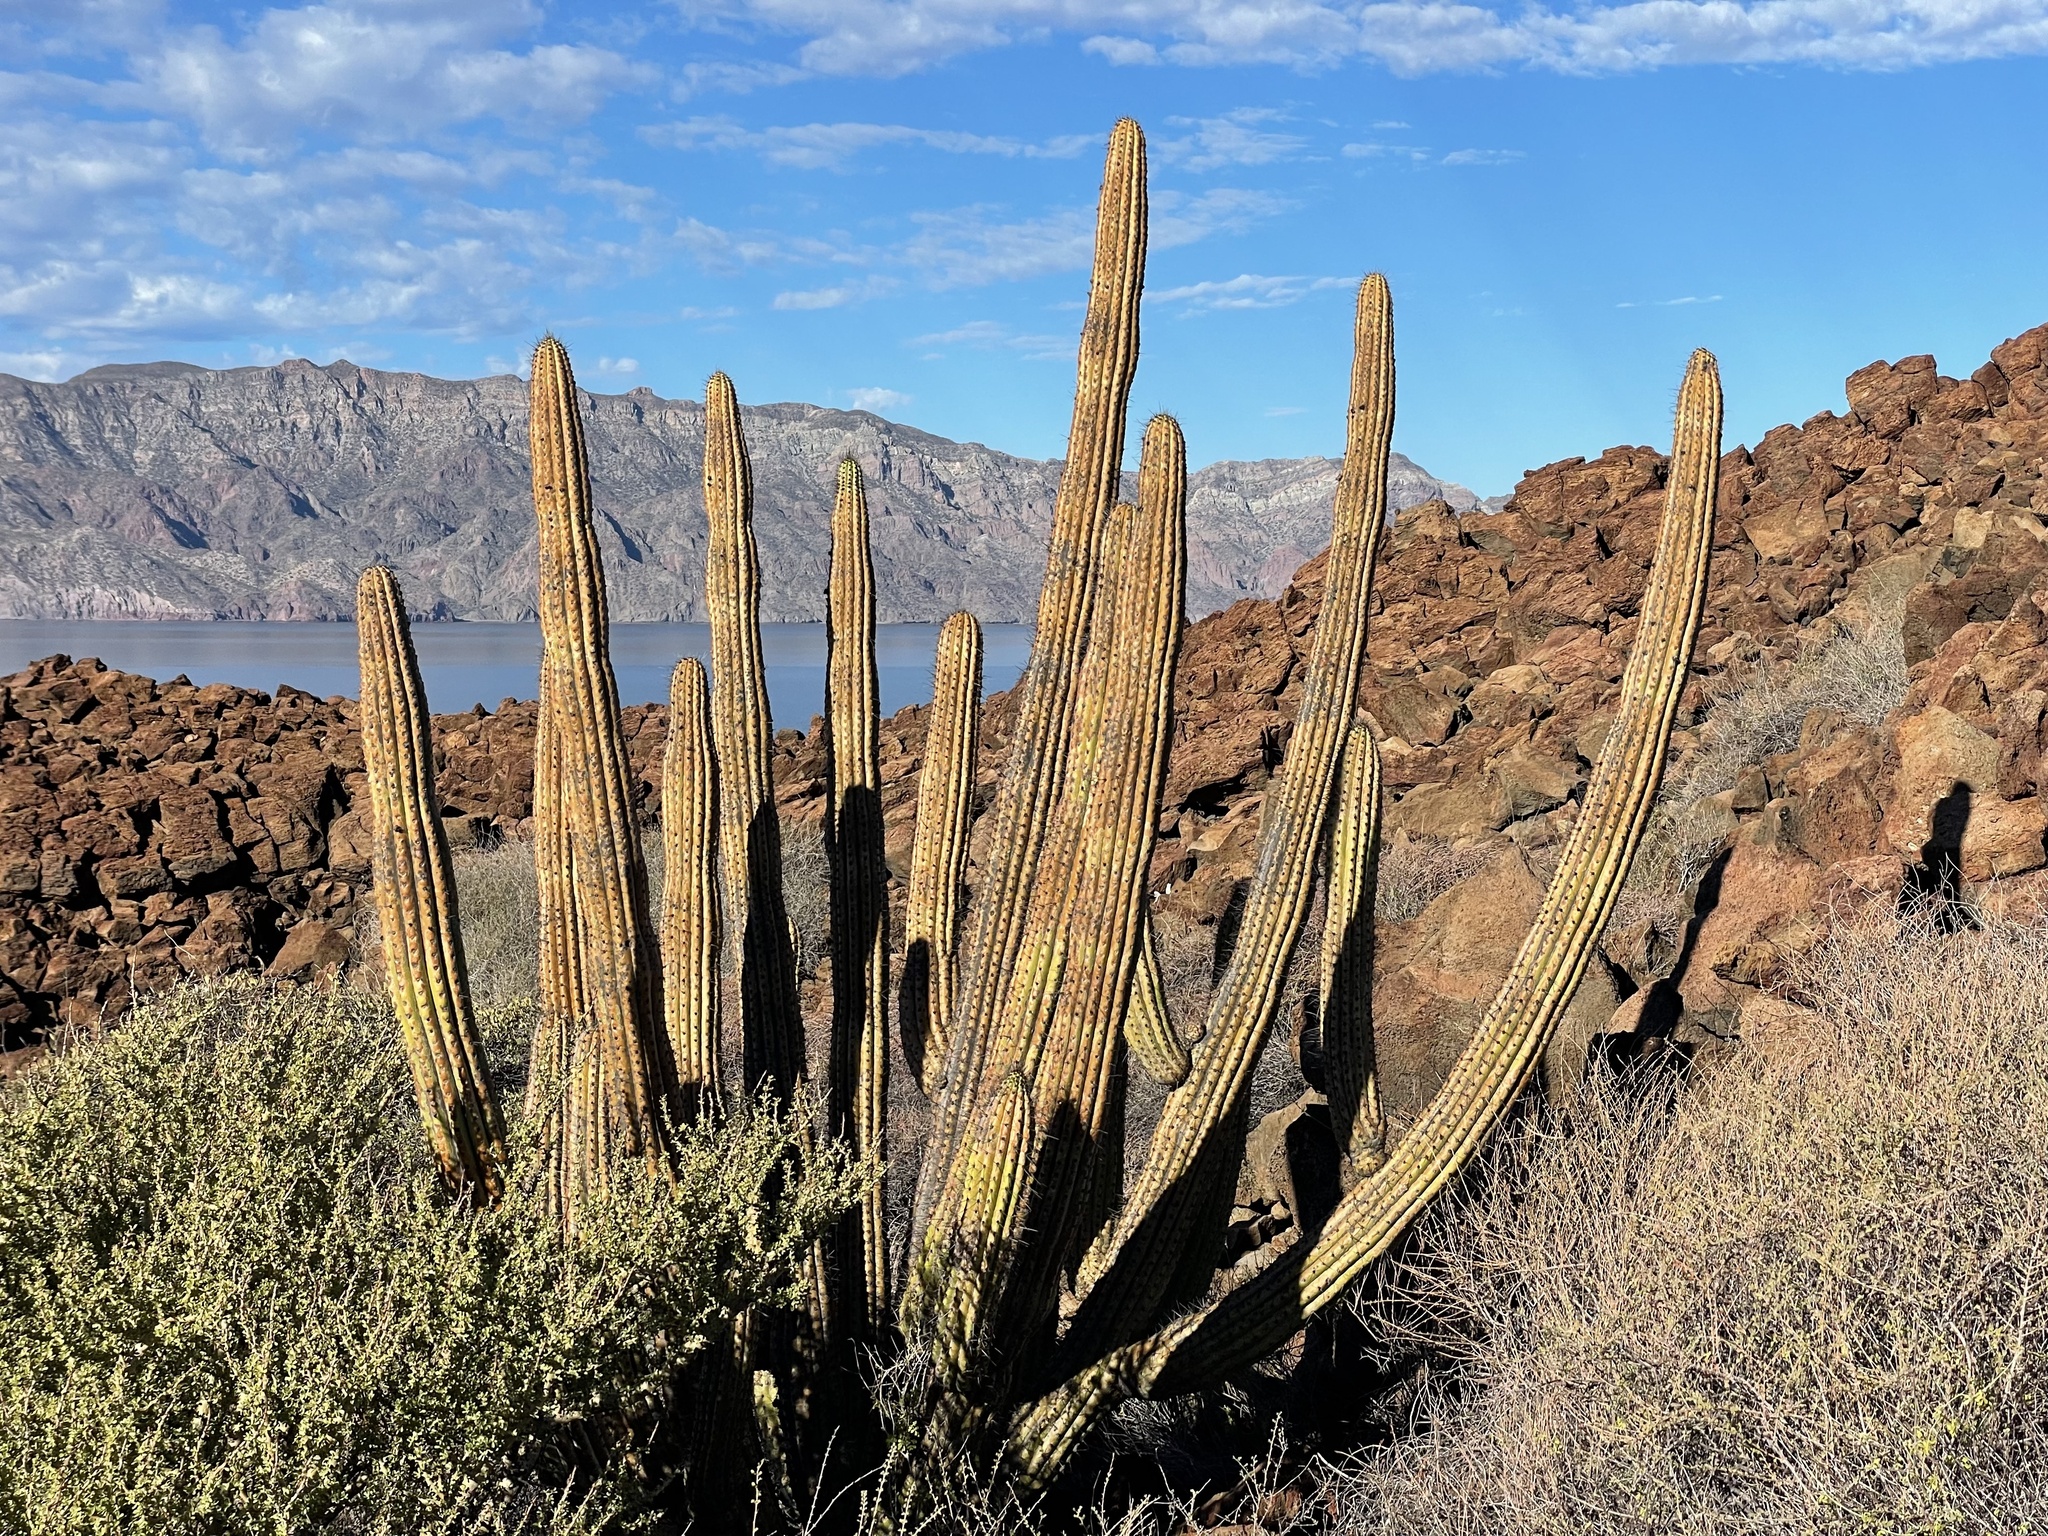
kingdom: Plantae
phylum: Tracheophyta
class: Magnoliopsida
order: Caryophyllales
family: Cactaceae
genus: Stenocereus
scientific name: Stenocereus thurberi
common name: Organ pipe cactus
